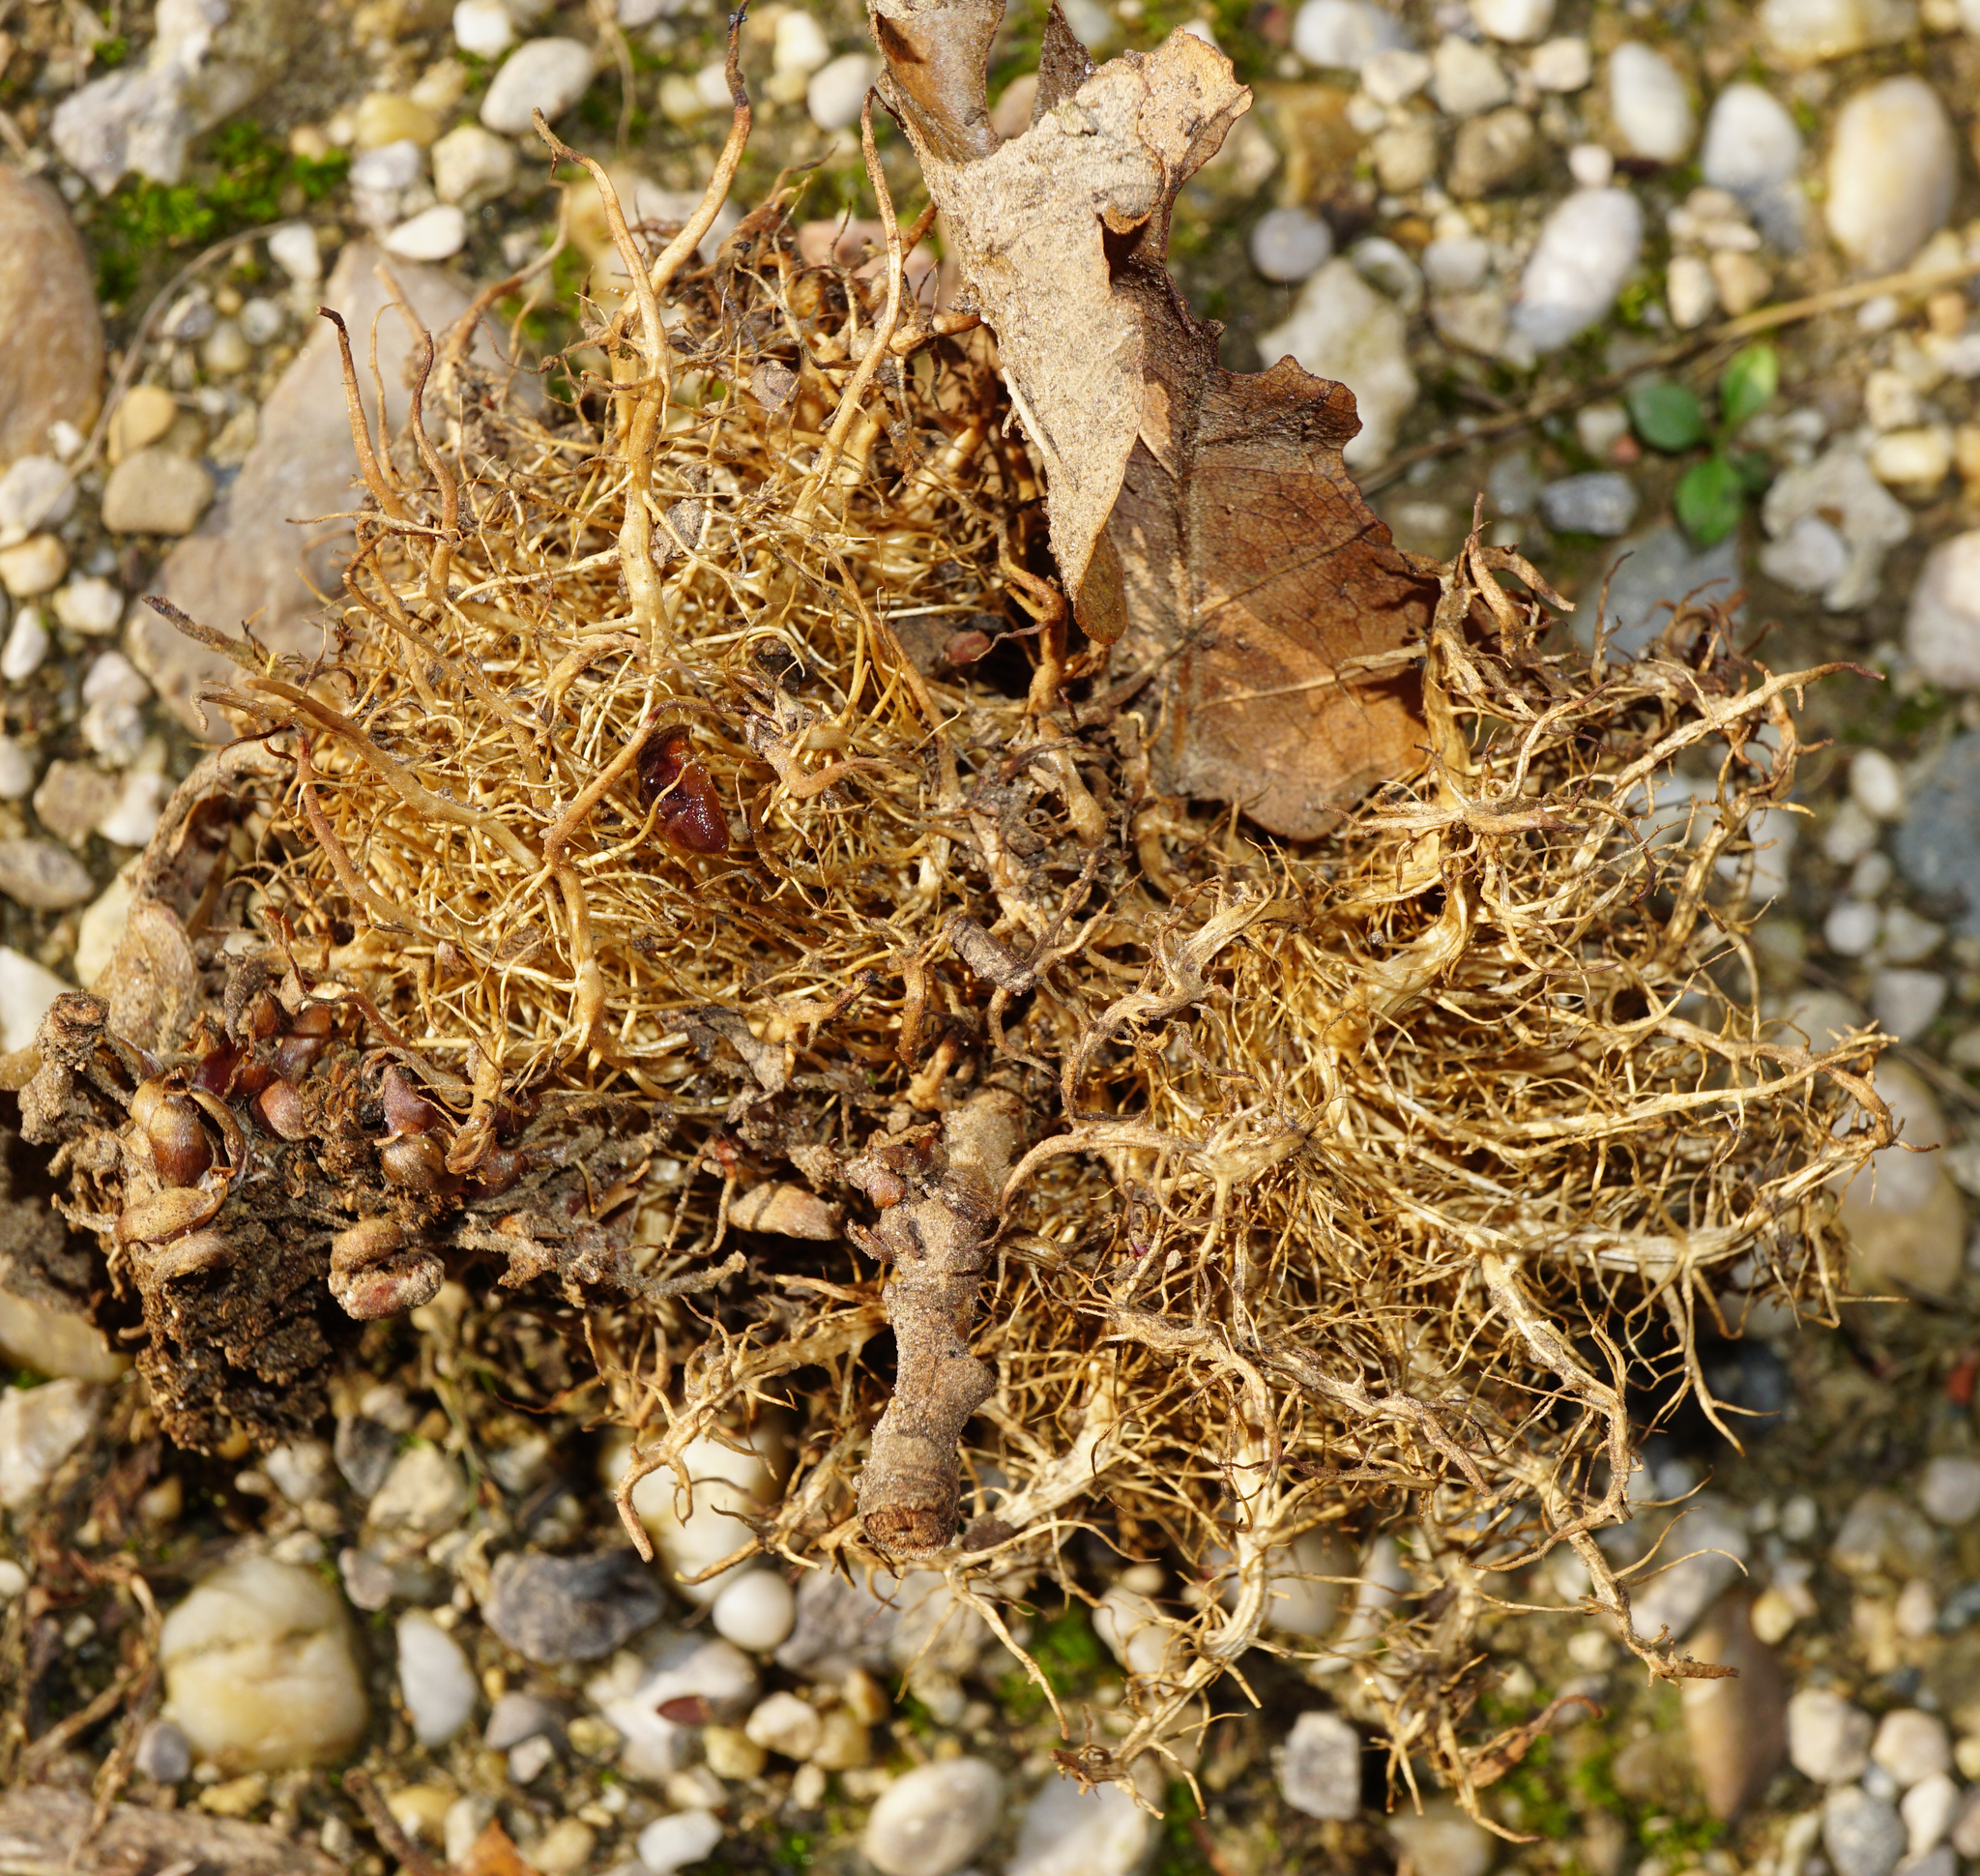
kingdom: Animalia
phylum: Arthropoda
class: Insecta
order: Hymenoptera
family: Cynipidae
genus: Andricus
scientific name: Andricus caputmedusae
